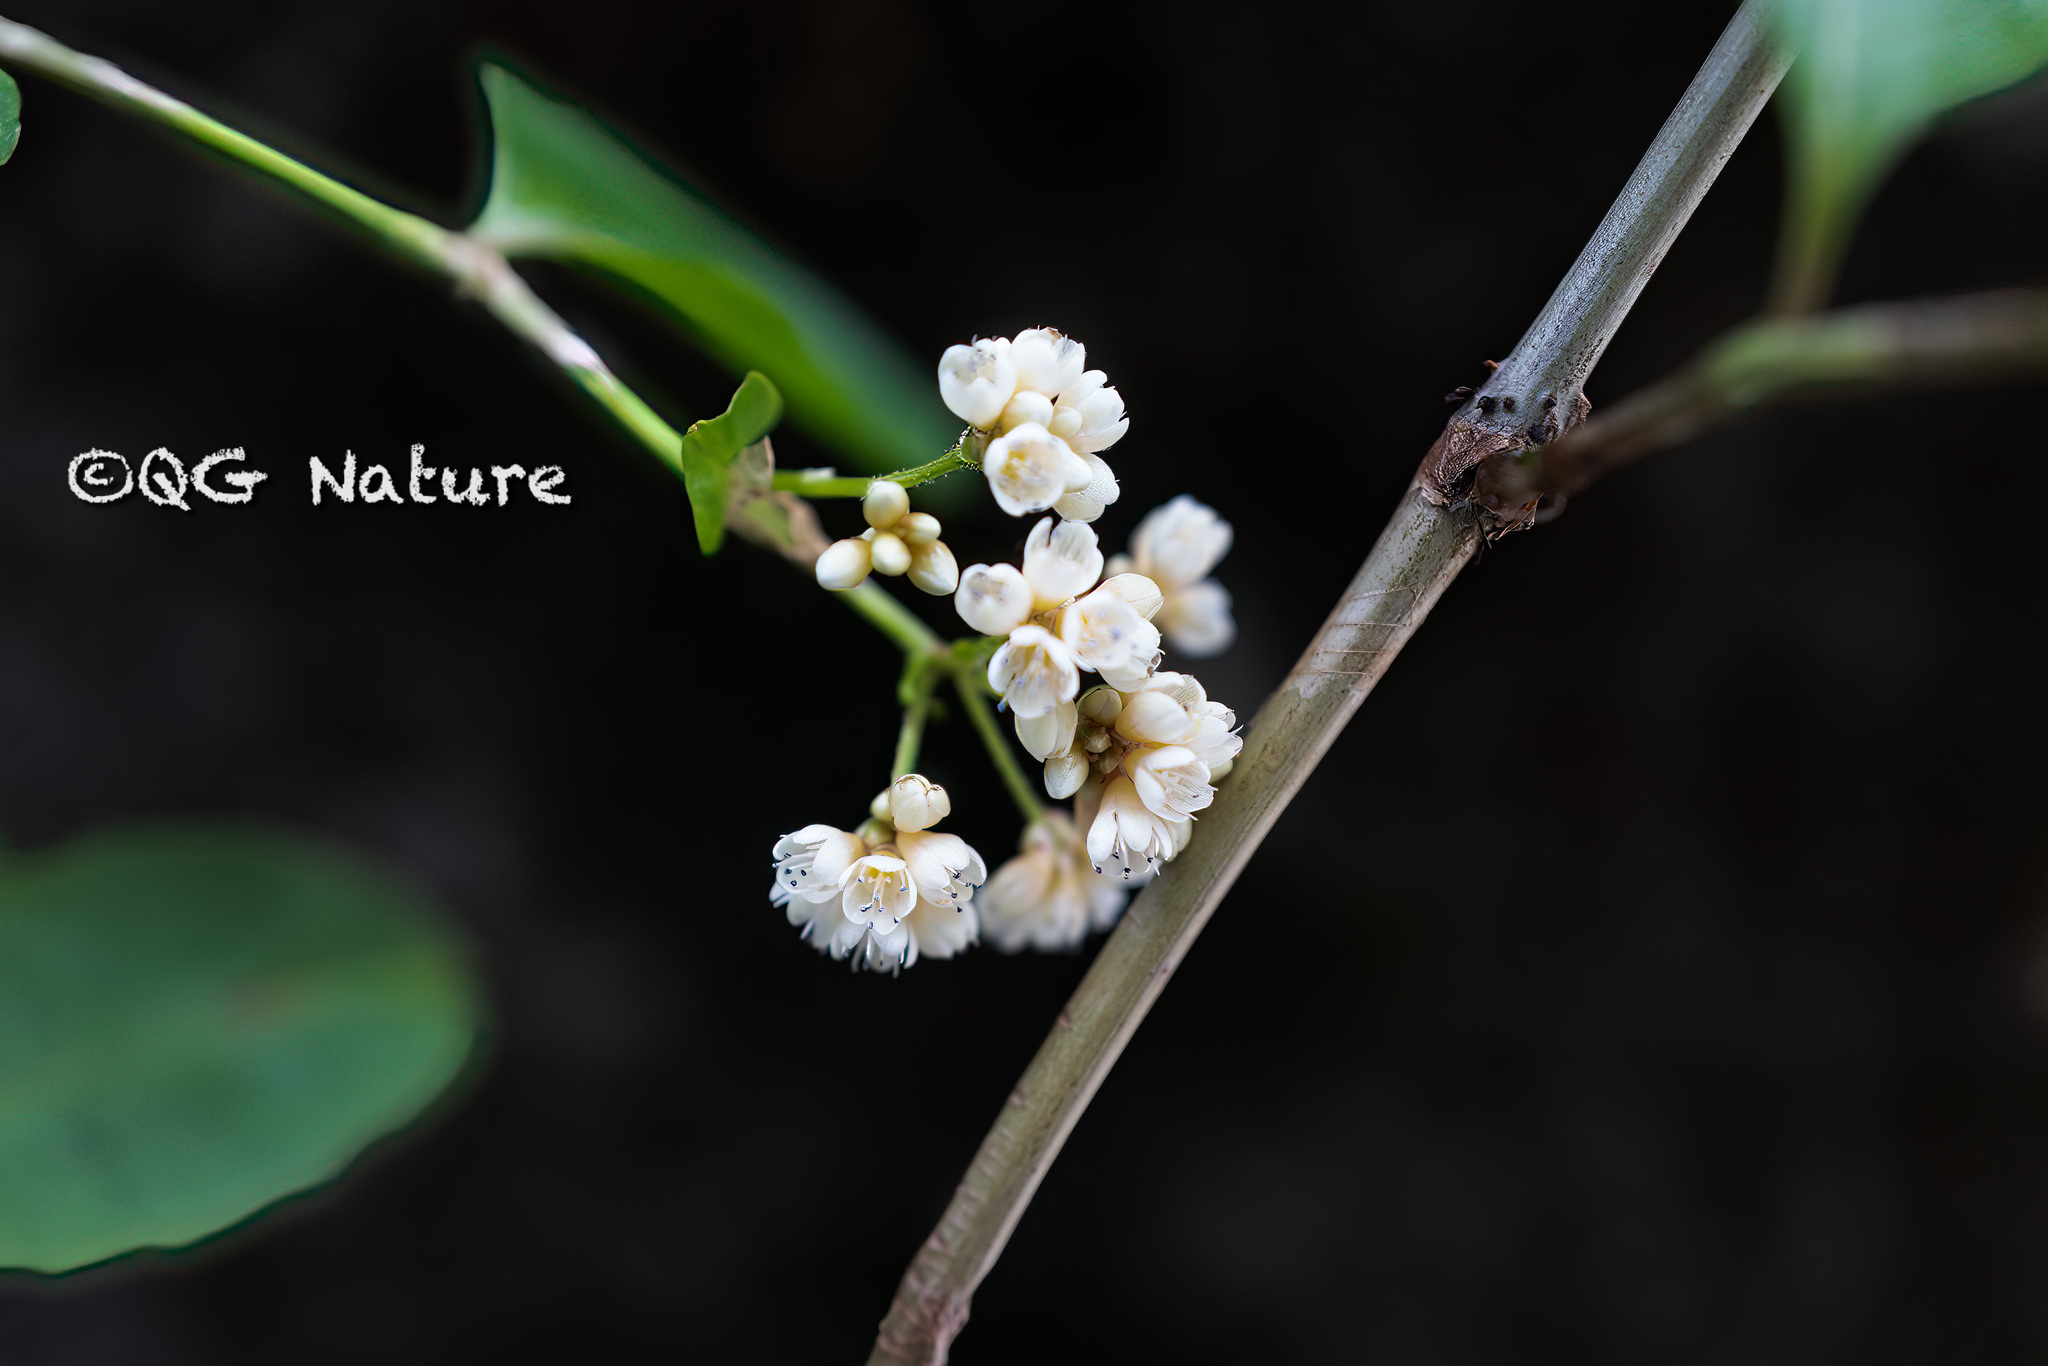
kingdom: Plantae
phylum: Tracheophyta
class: Magnoliopsida
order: Caryophyllales
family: Polygonaceae
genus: Persicaria
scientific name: Persicaria chinensis
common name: Chinese knotweed
